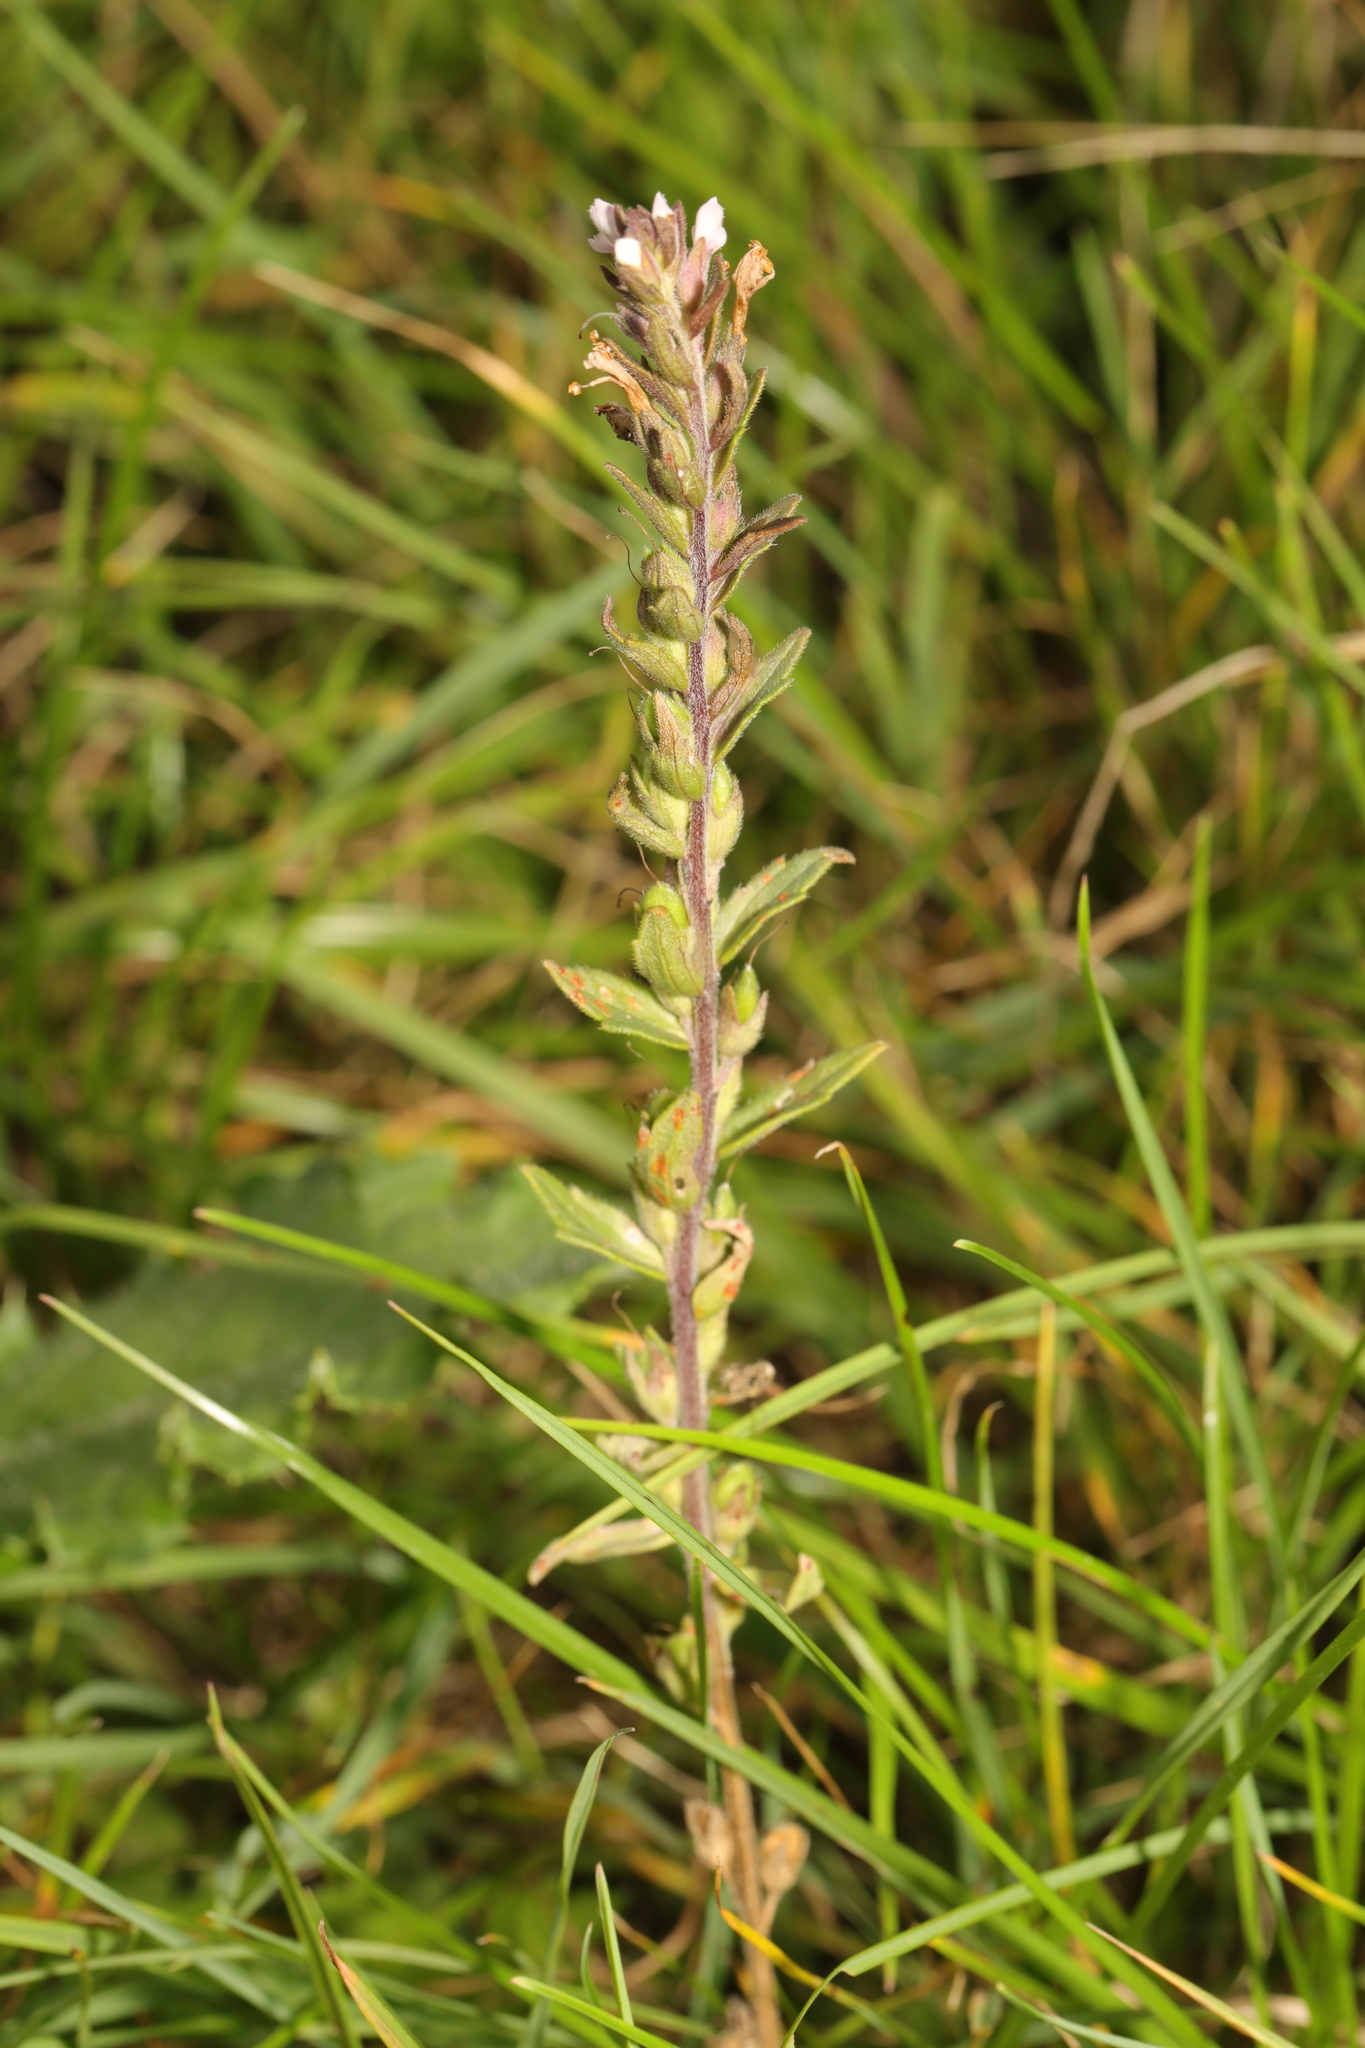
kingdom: Plantae
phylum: Tracheophyta
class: Magnoliopsida
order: Lamiales
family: Orobanchaceae
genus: Odontites
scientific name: Odontites vernus
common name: Red bartsia
